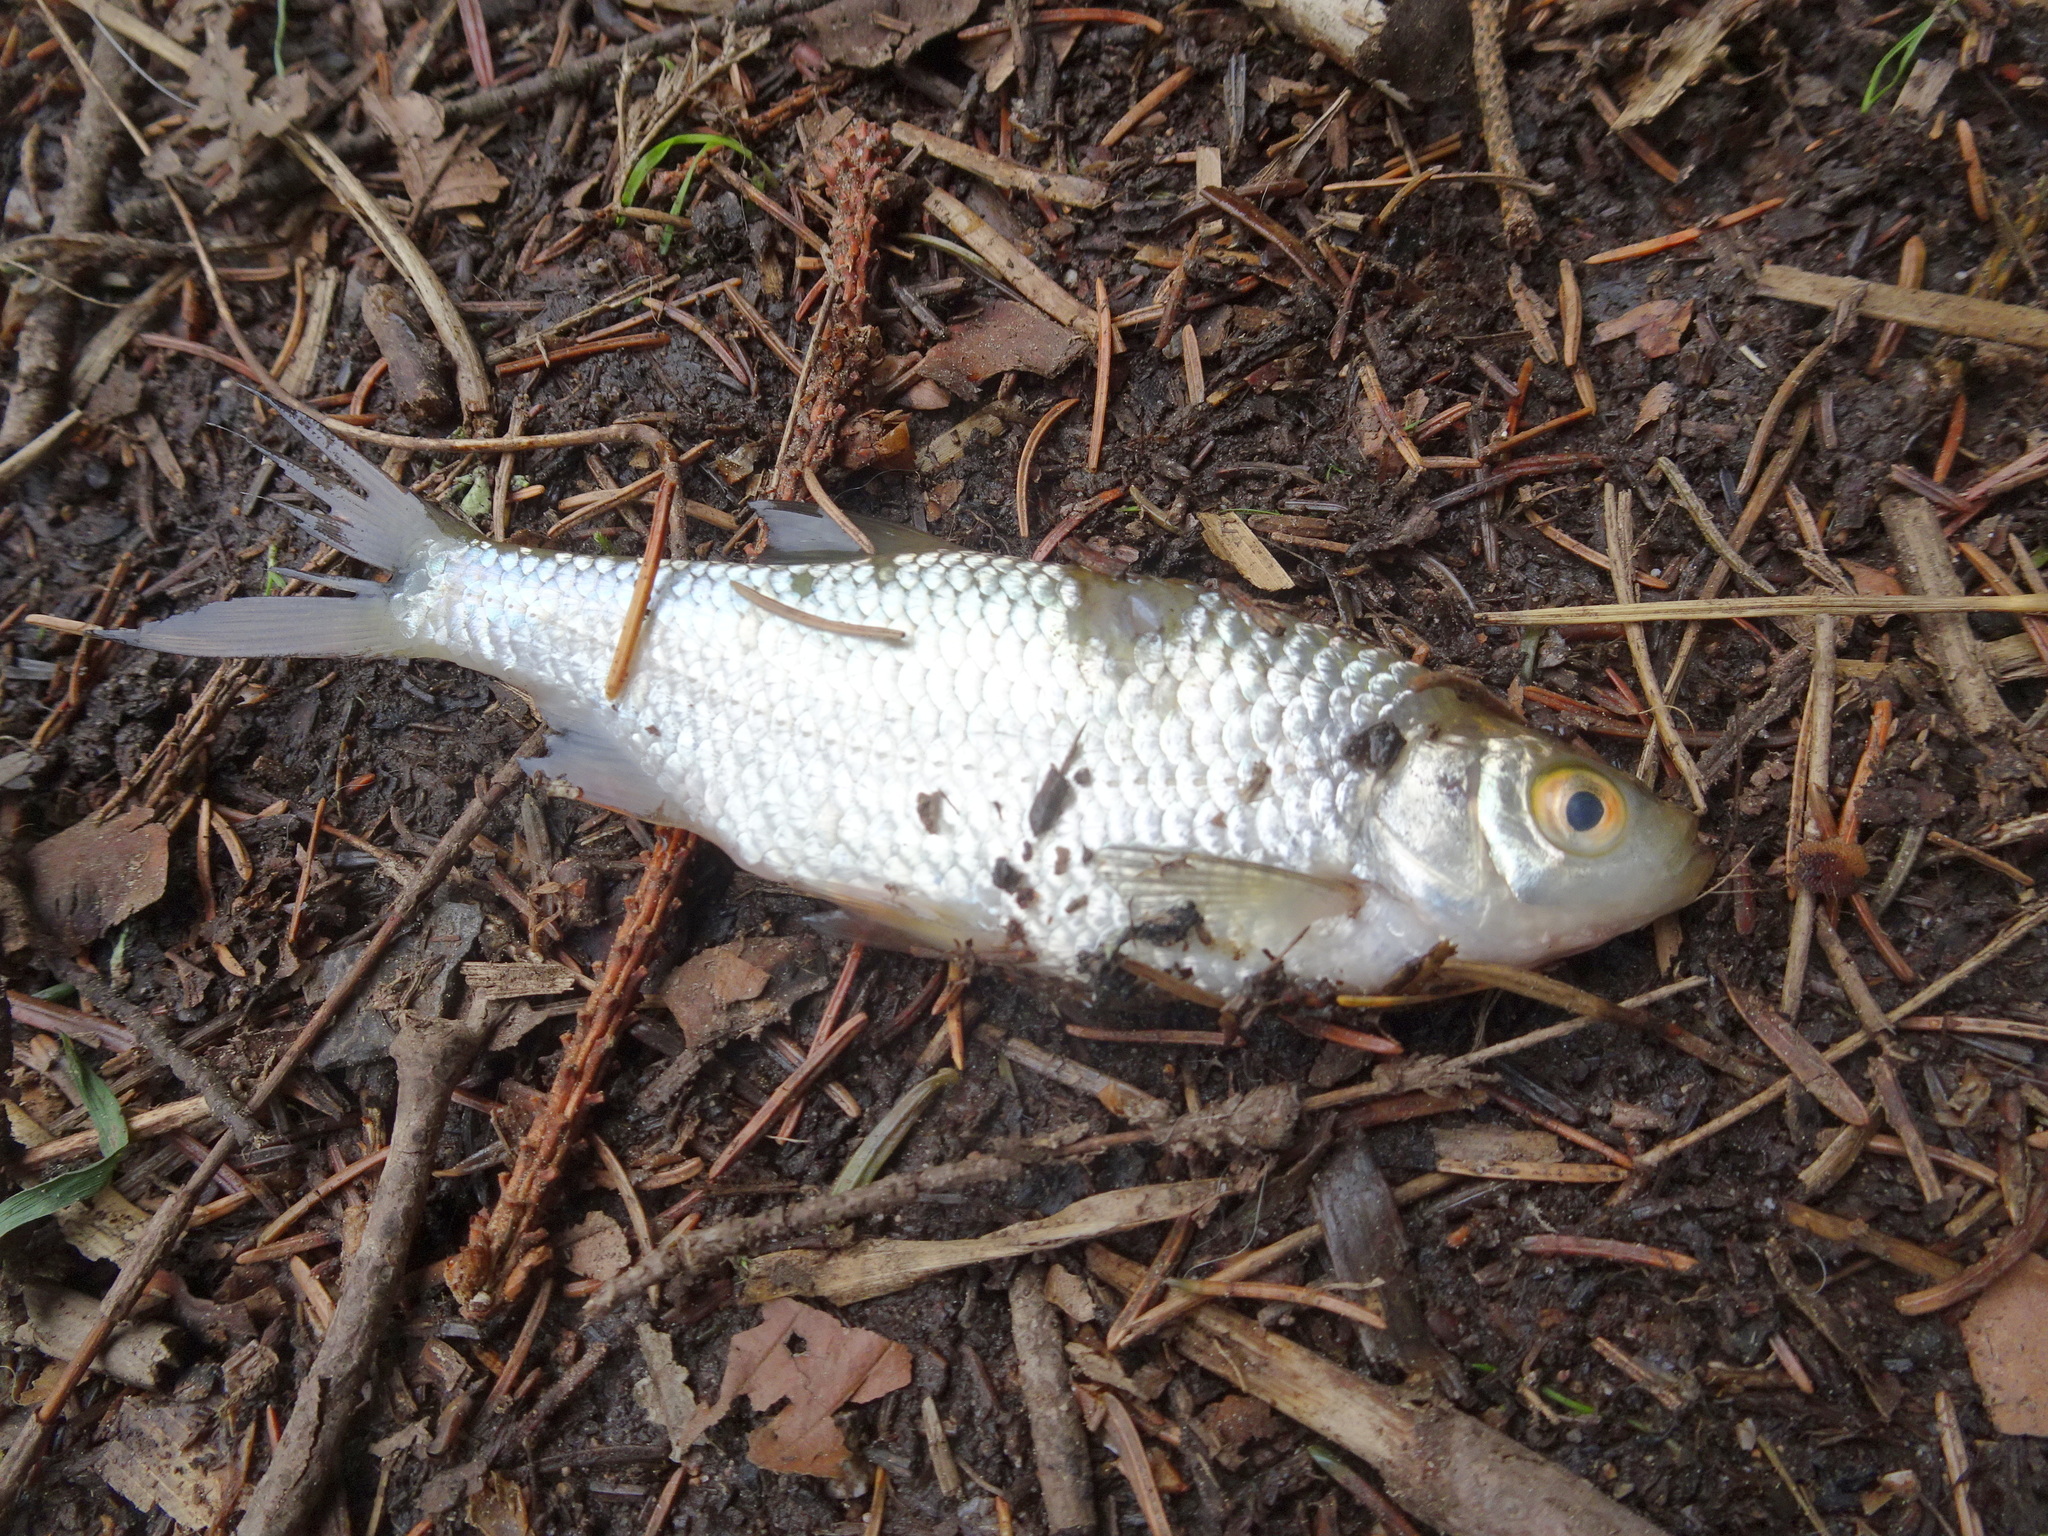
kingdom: Animalia
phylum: Chordata
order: Cypriniformes
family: Cyprinidae
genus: Rutilus
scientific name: Rutilus rutilus
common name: Roach
